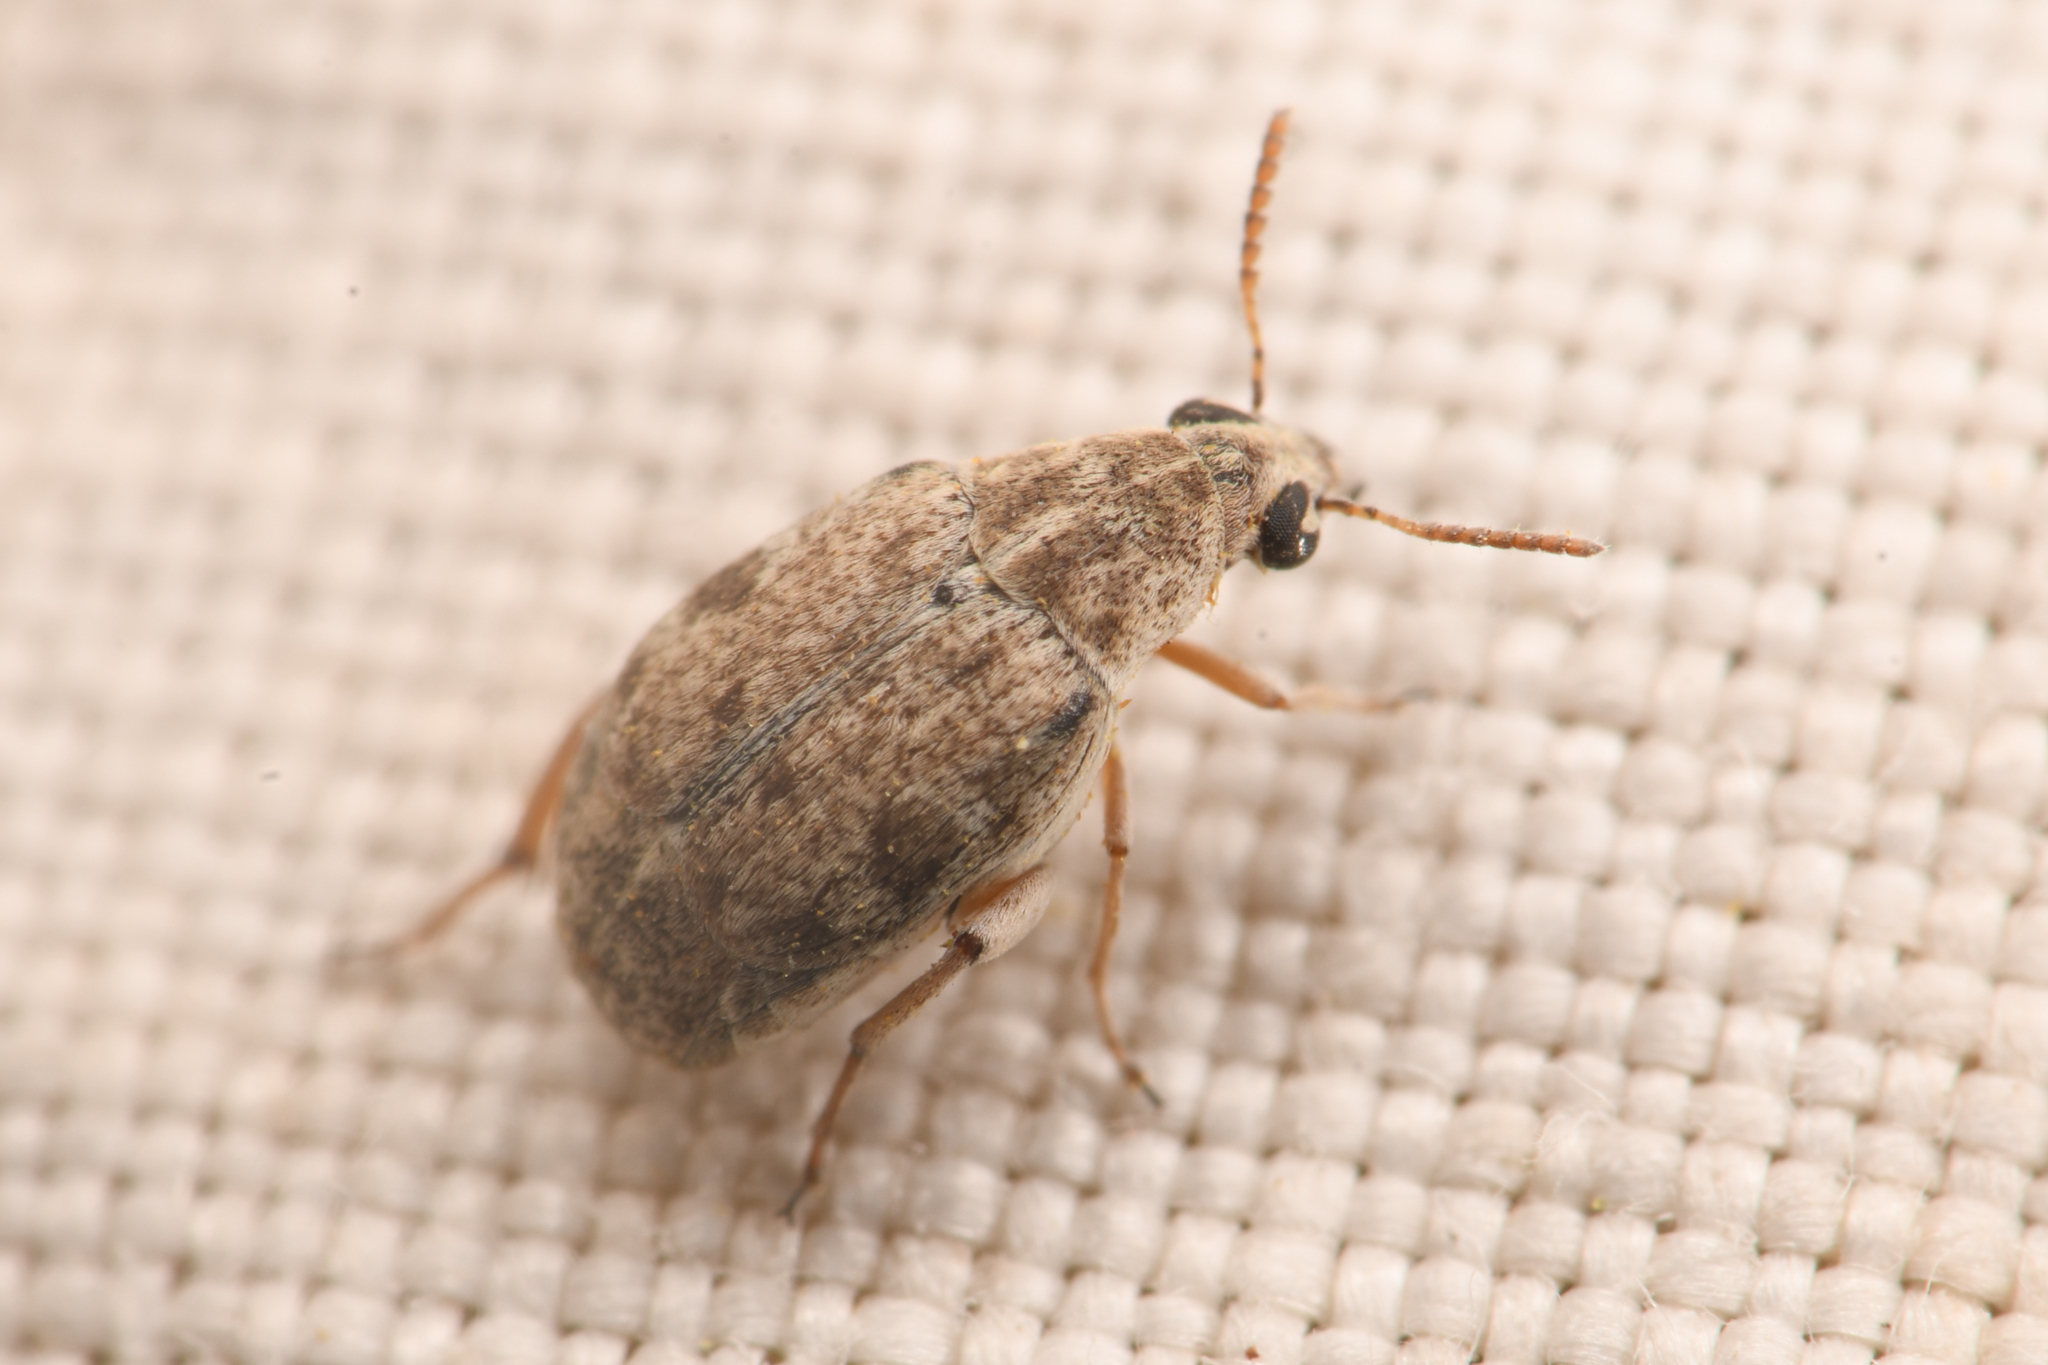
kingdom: Animalia
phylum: Arthropoda
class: Insecta
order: Coleoptera
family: Chrysomelidae
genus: Algarobius
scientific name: Algarobius prosopis
